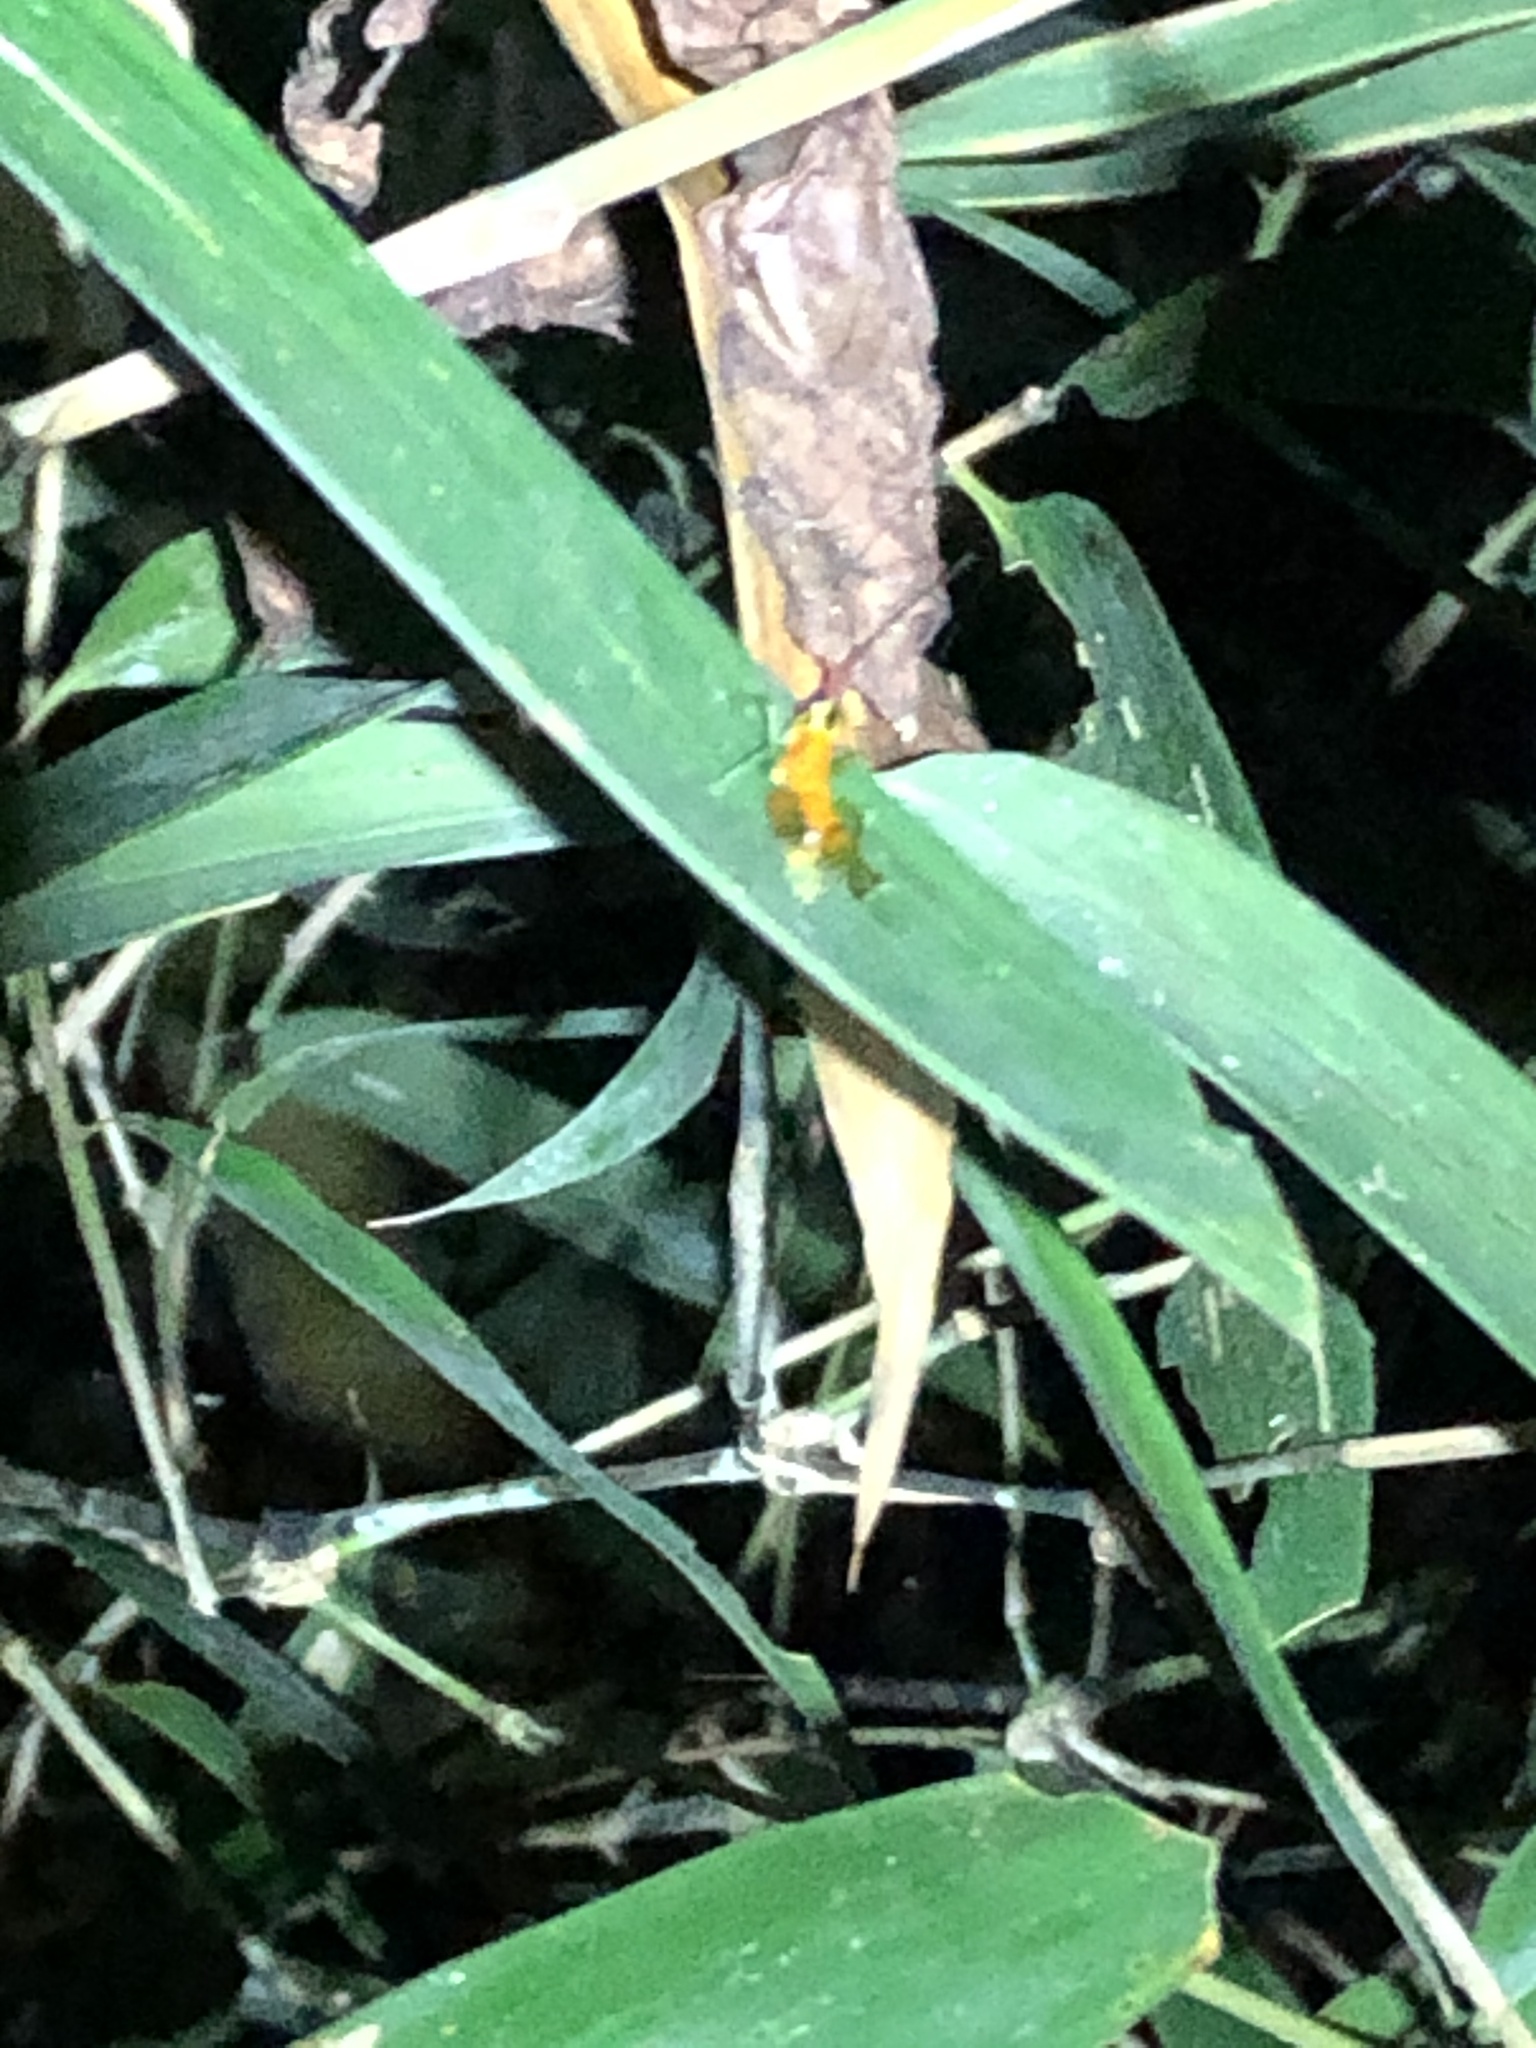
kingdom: Animalia
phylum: Arthropoda
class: Insecta
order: Orthoptera
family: Acrididae
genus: Contacris
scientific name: Contacris gemmea
